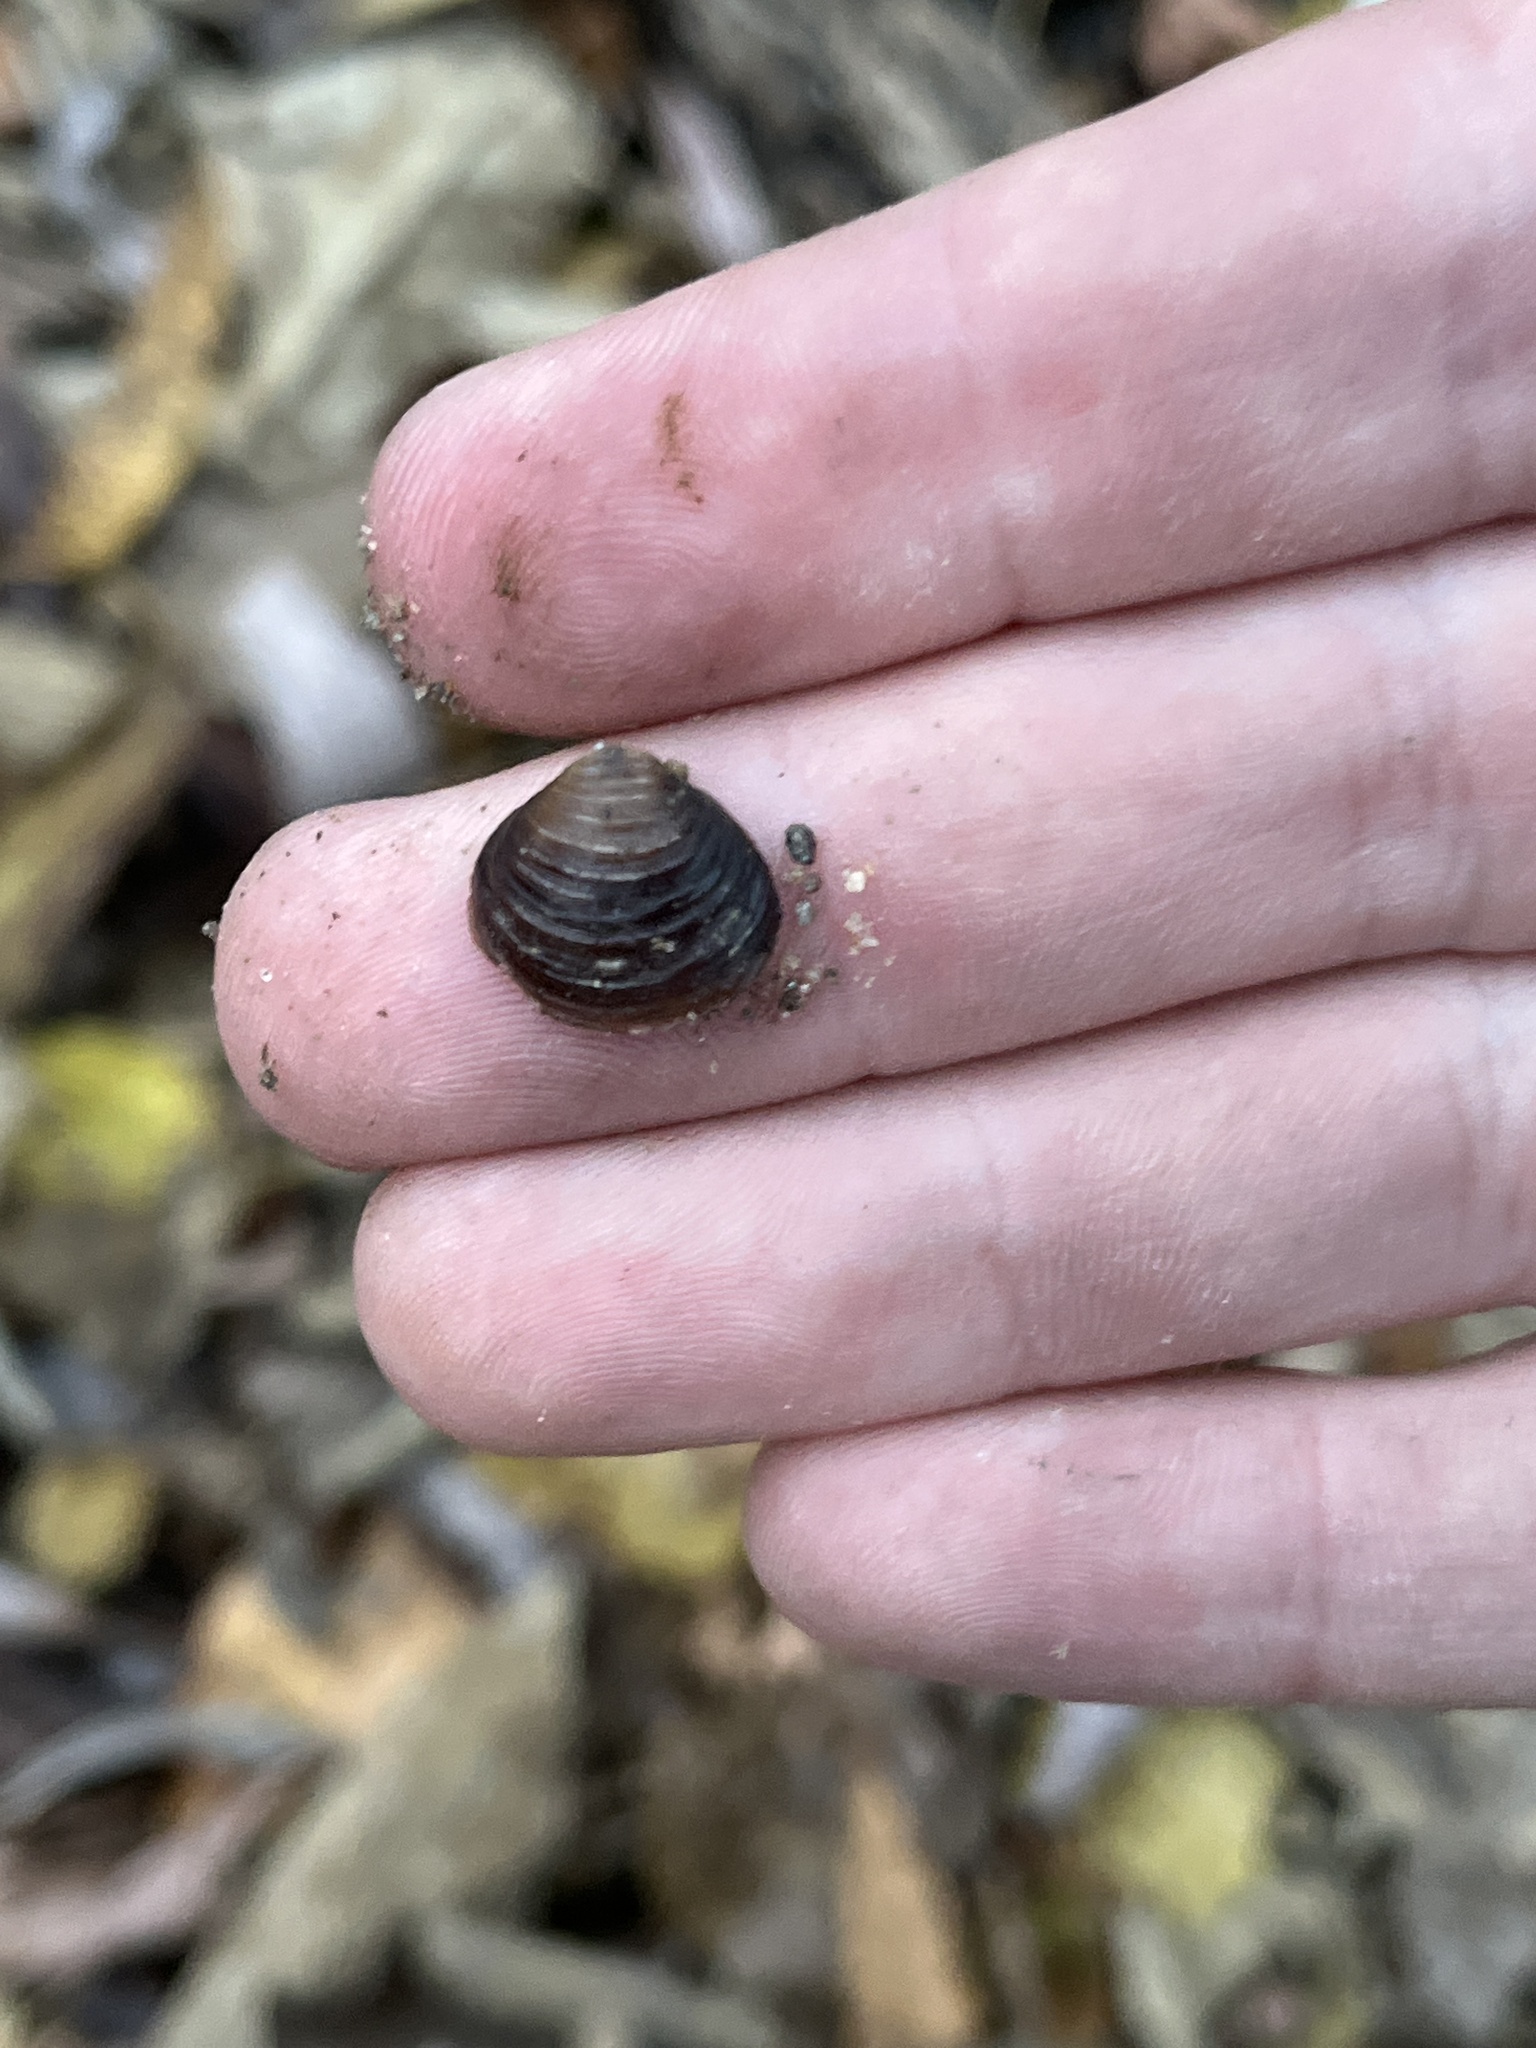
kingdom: Animalia
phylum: Mollusca
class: Bivalvia
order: Venerida
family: Cyrenidae
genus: Corbicula
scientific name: Corbicula fluminea
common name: Asian clam
